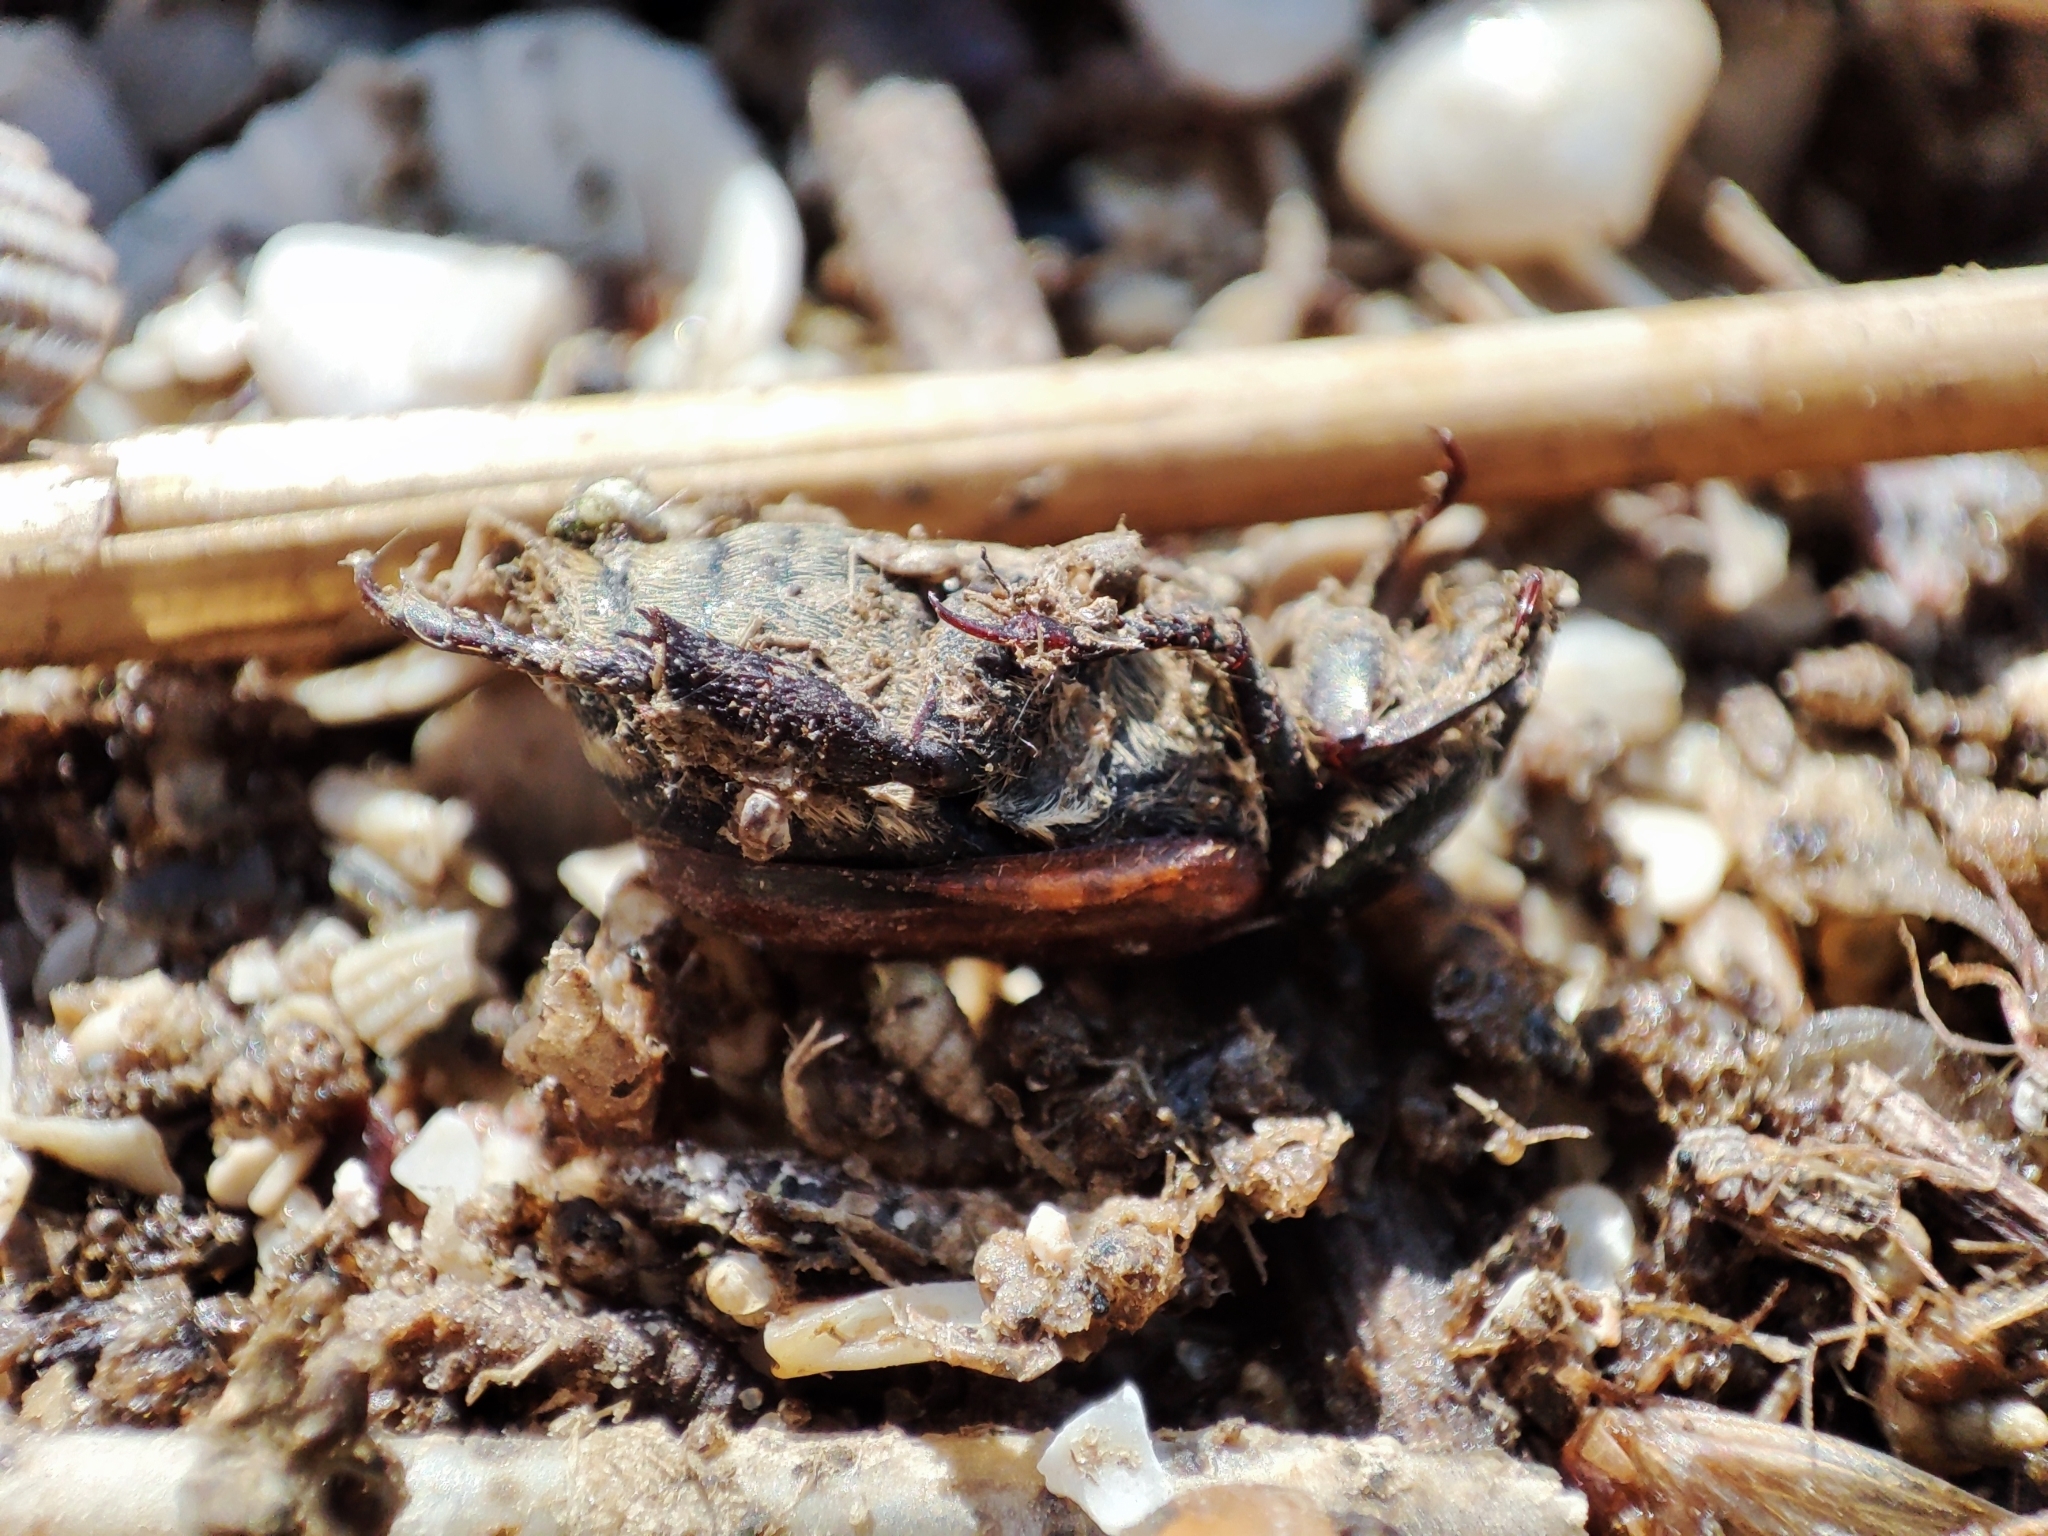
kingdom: Animalia
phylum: Arthropoda
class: Insecta
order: Coleoptera
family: Scarabaeidae
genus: Anisoplia
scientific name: Anisoplia austriaca
